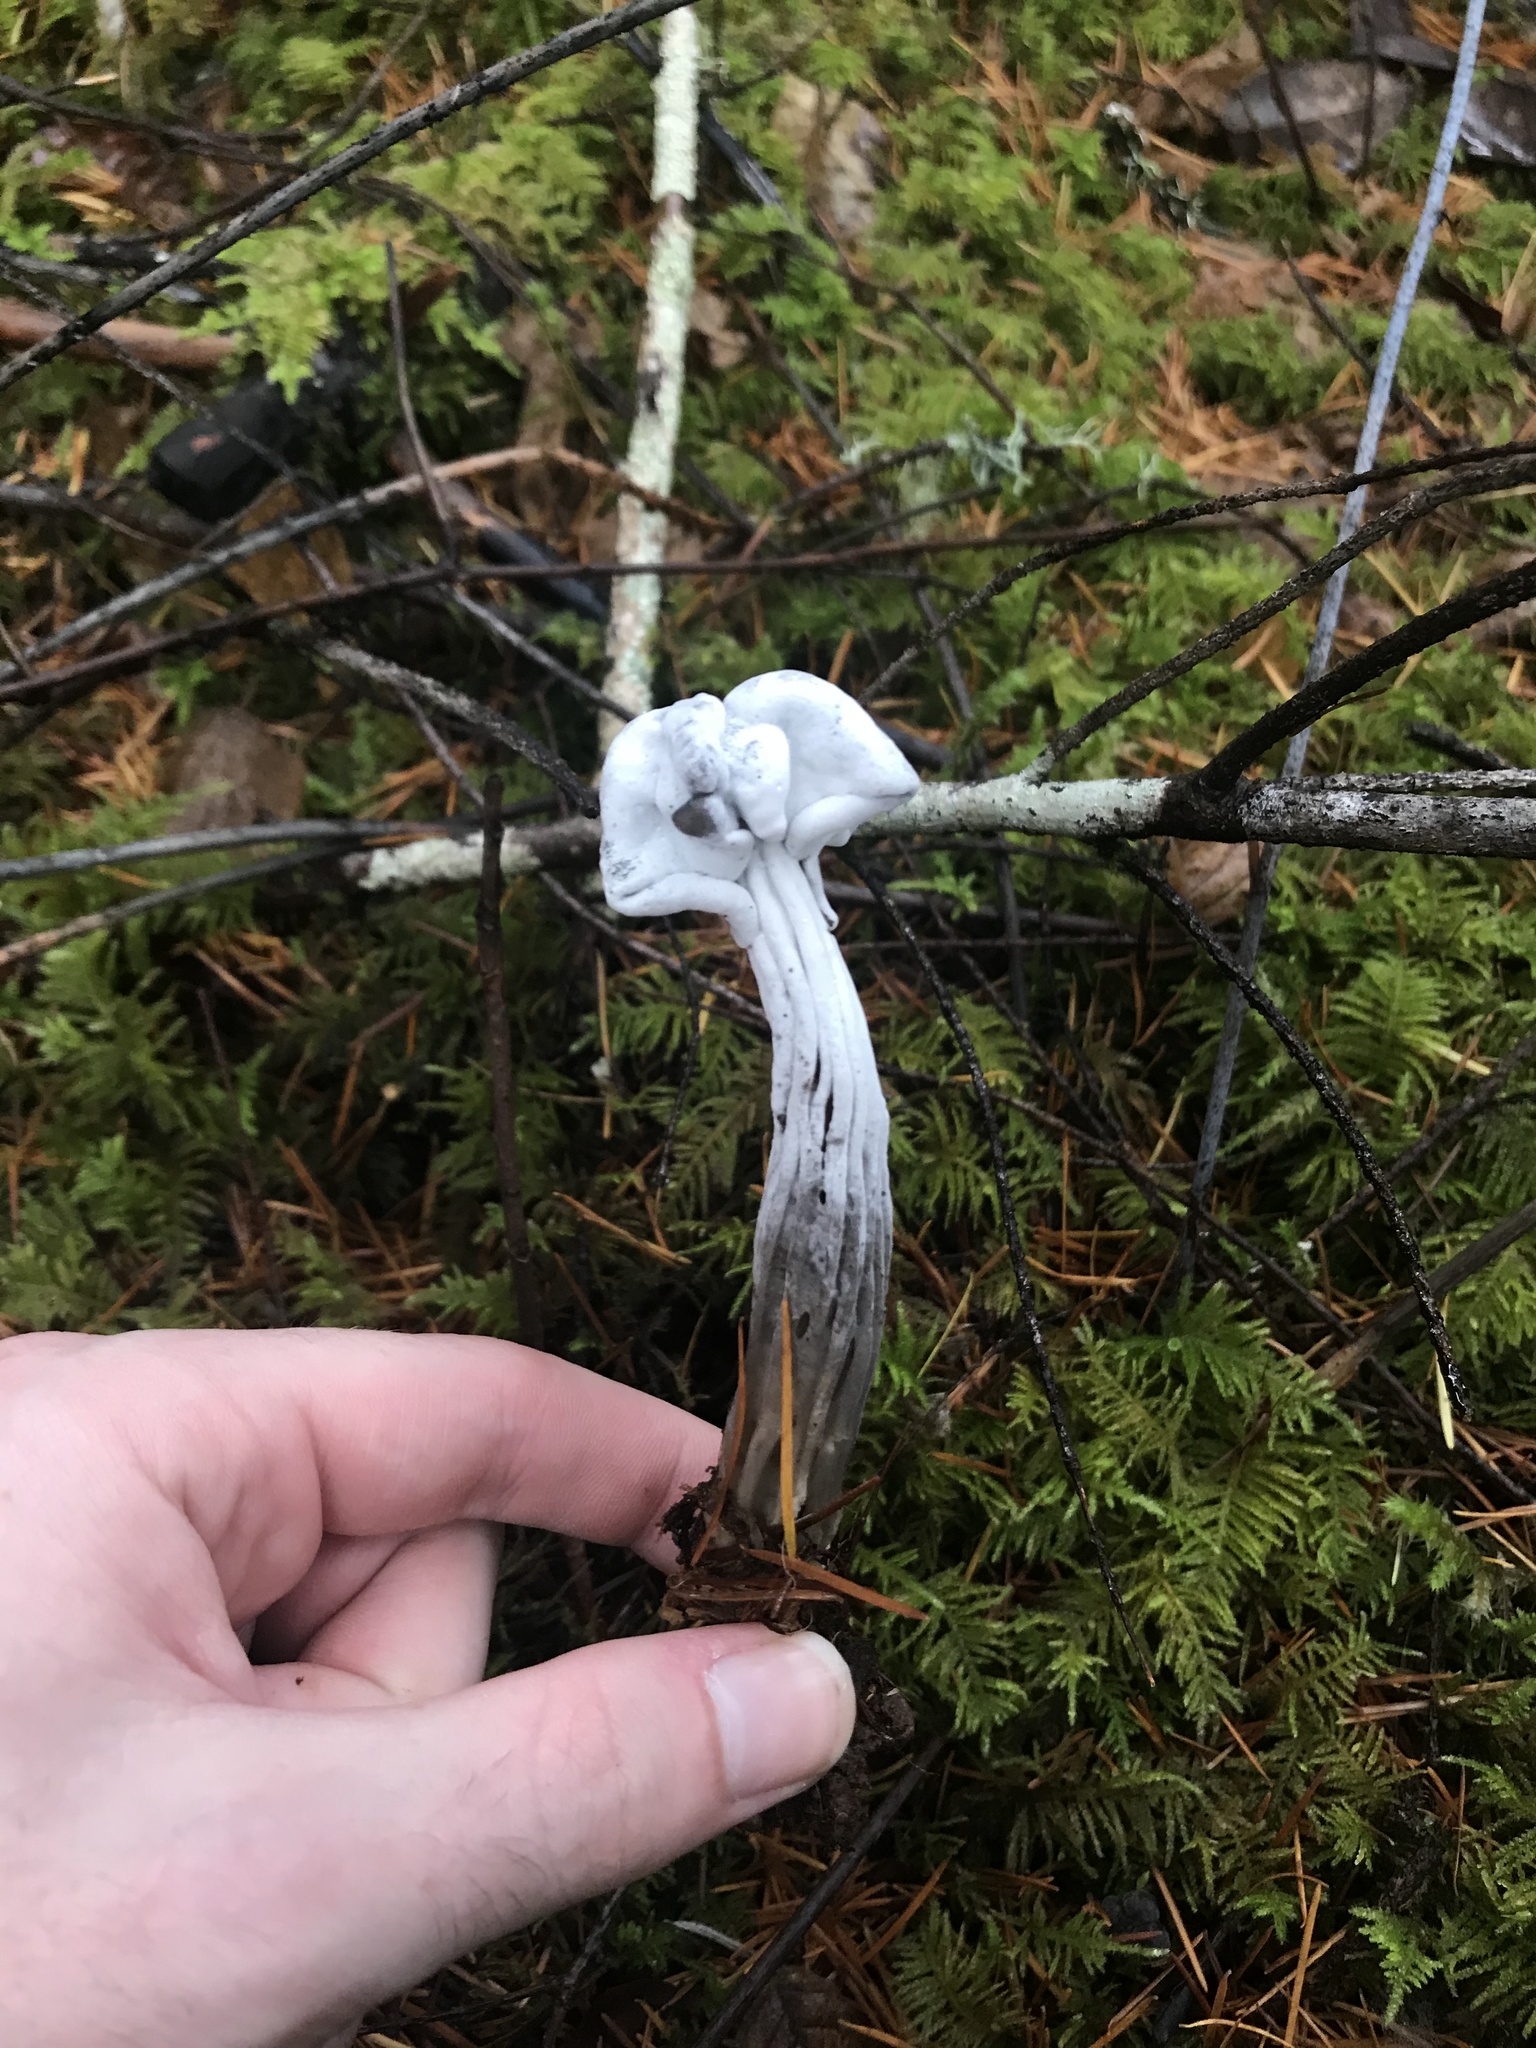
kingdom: Fungi
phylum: Ascomycota
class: Sordariomycetes
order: Hypocreales
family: Hypocreaceae
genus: Hypomyces
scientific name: Hypomyces cervinus
